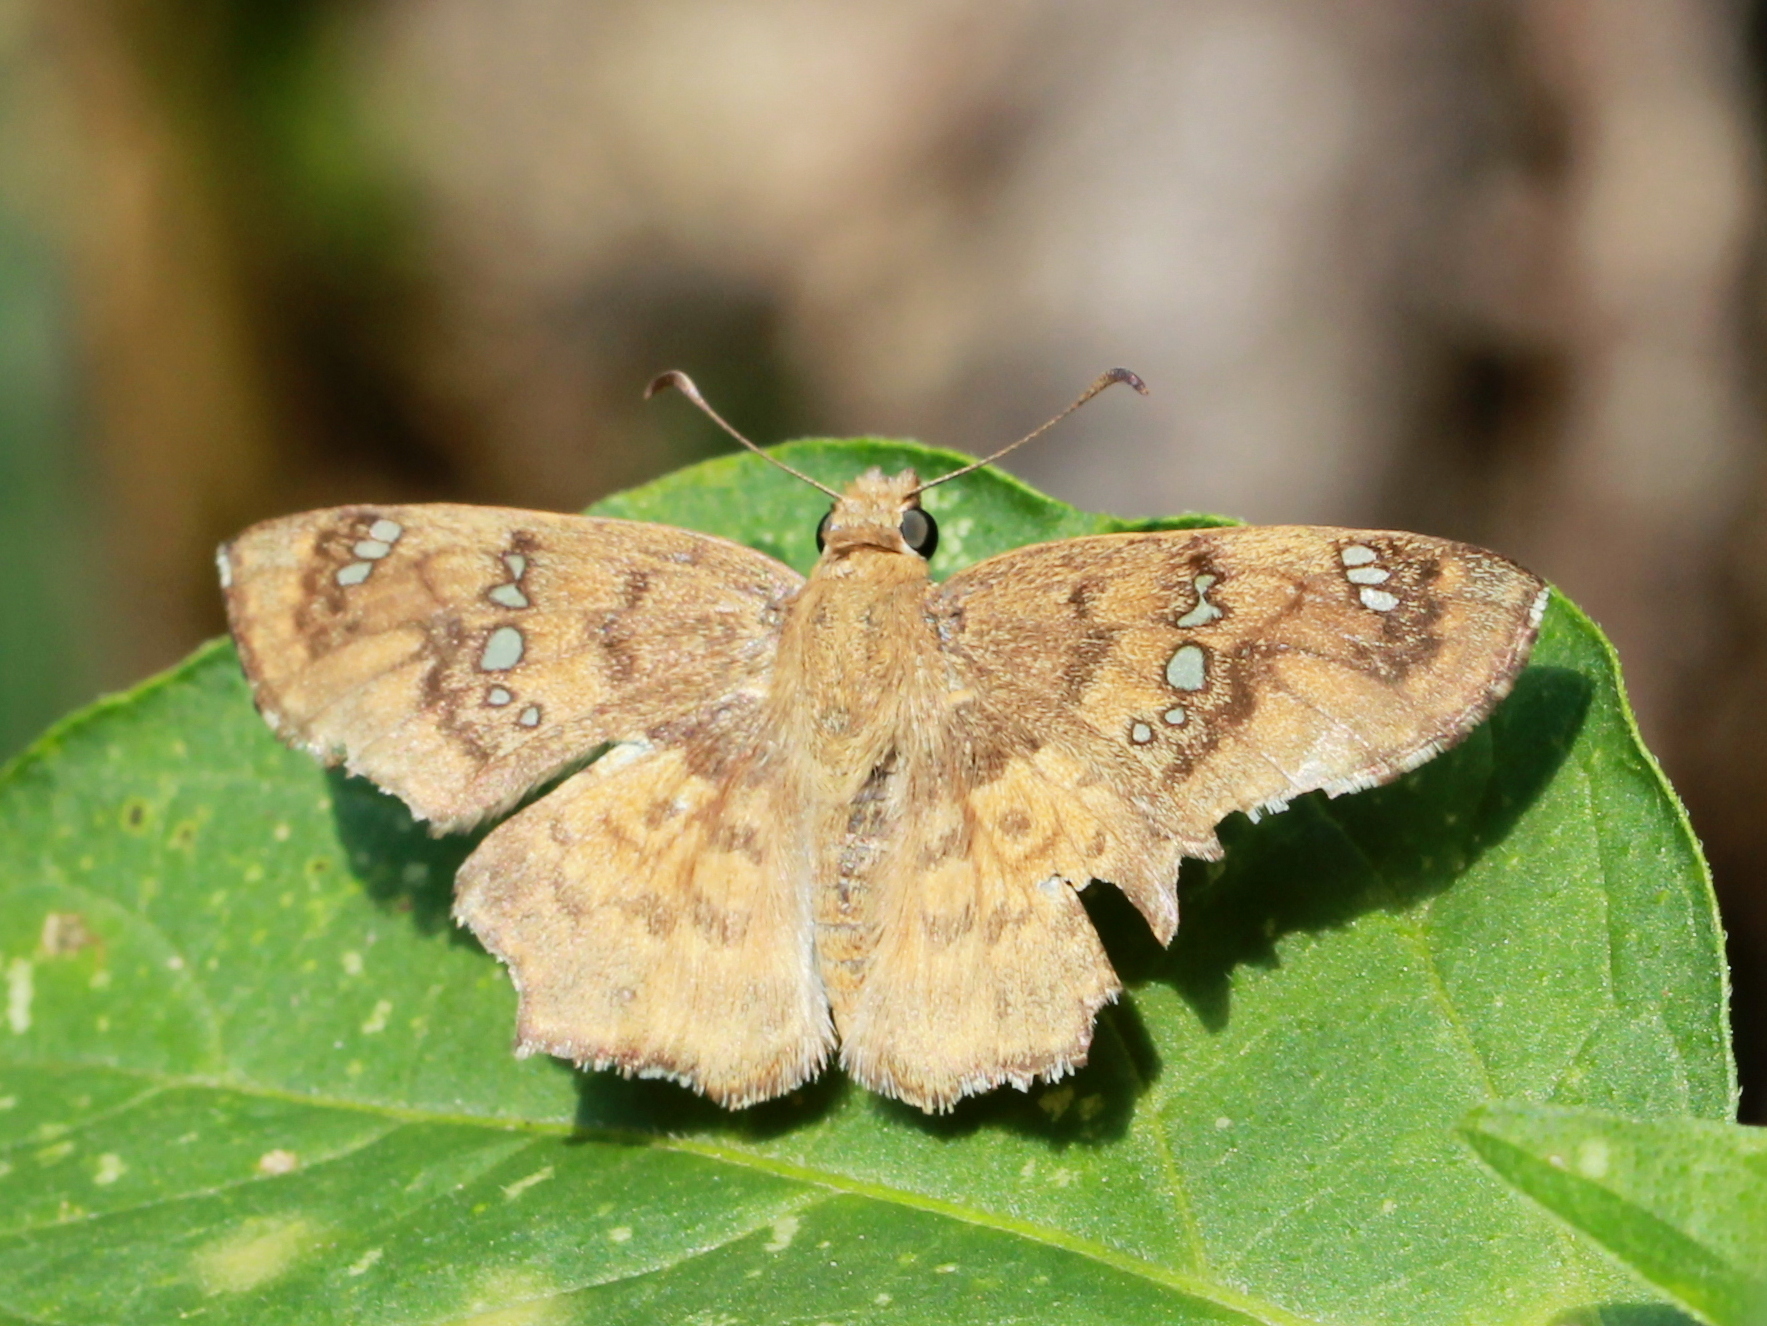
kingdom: Animalia
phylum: Arthropoda
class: Insecta
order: Lepidoptera
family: Hesperiidae
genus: Caprona
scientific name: Caprona ransonnettii
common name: Golden angle
